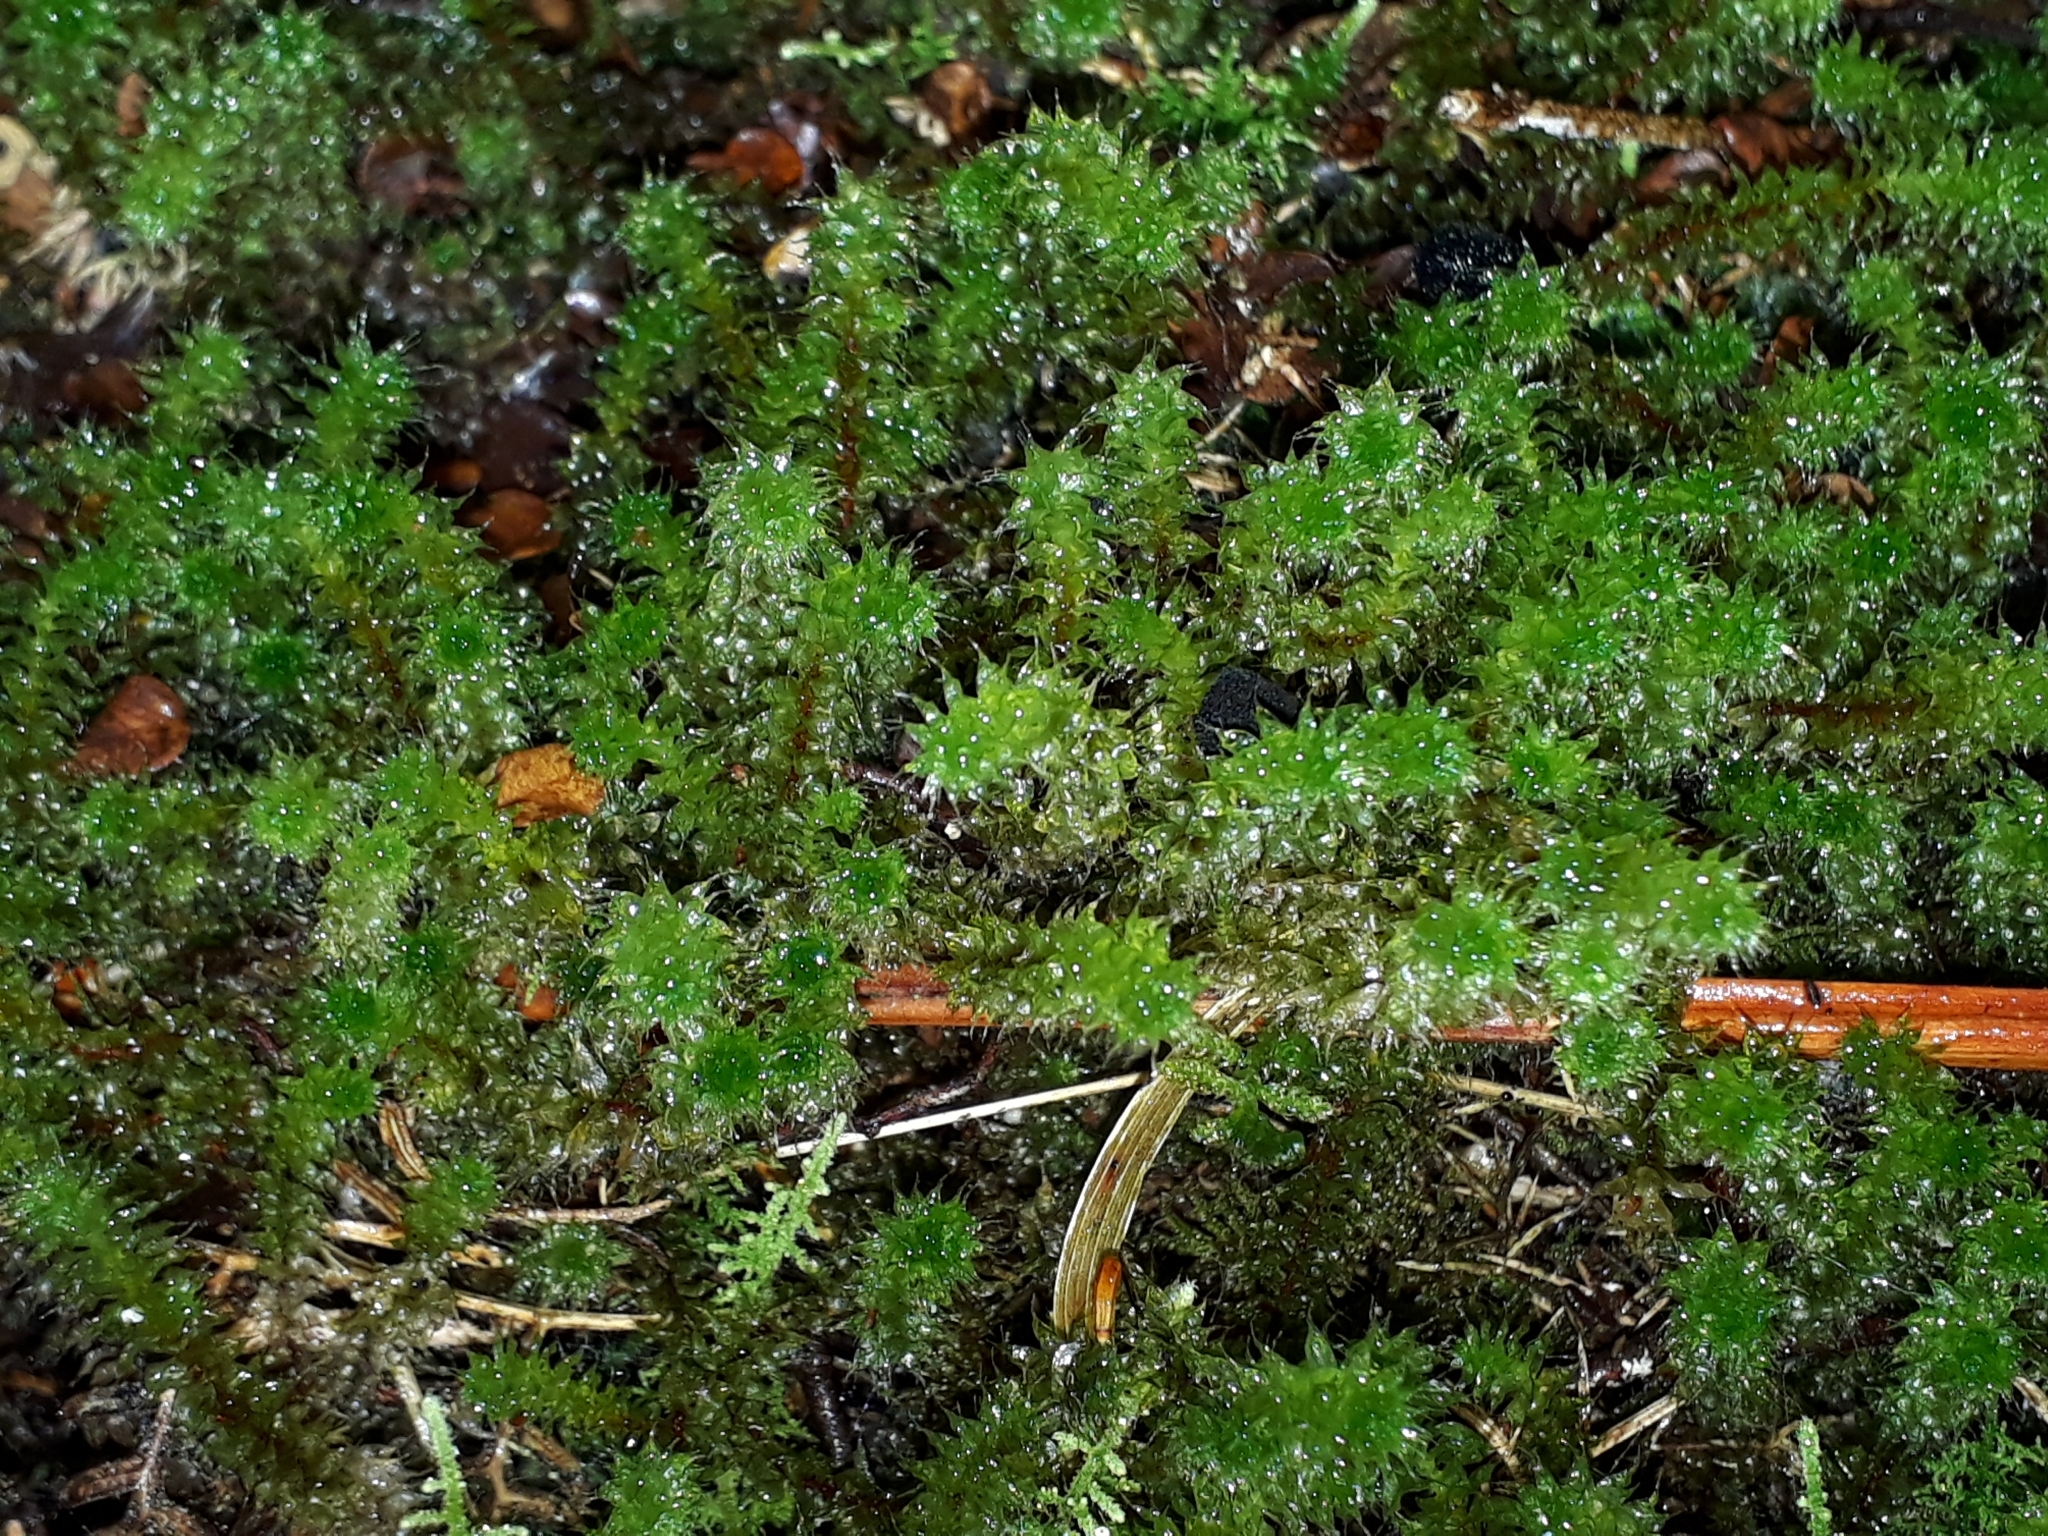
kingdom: Plantae
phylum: Bryophyta
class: Bryopsida
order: Ptychomniales
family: Ptychomniaceae
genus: Ptychomnion
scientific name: Ptychomnion aciculare
